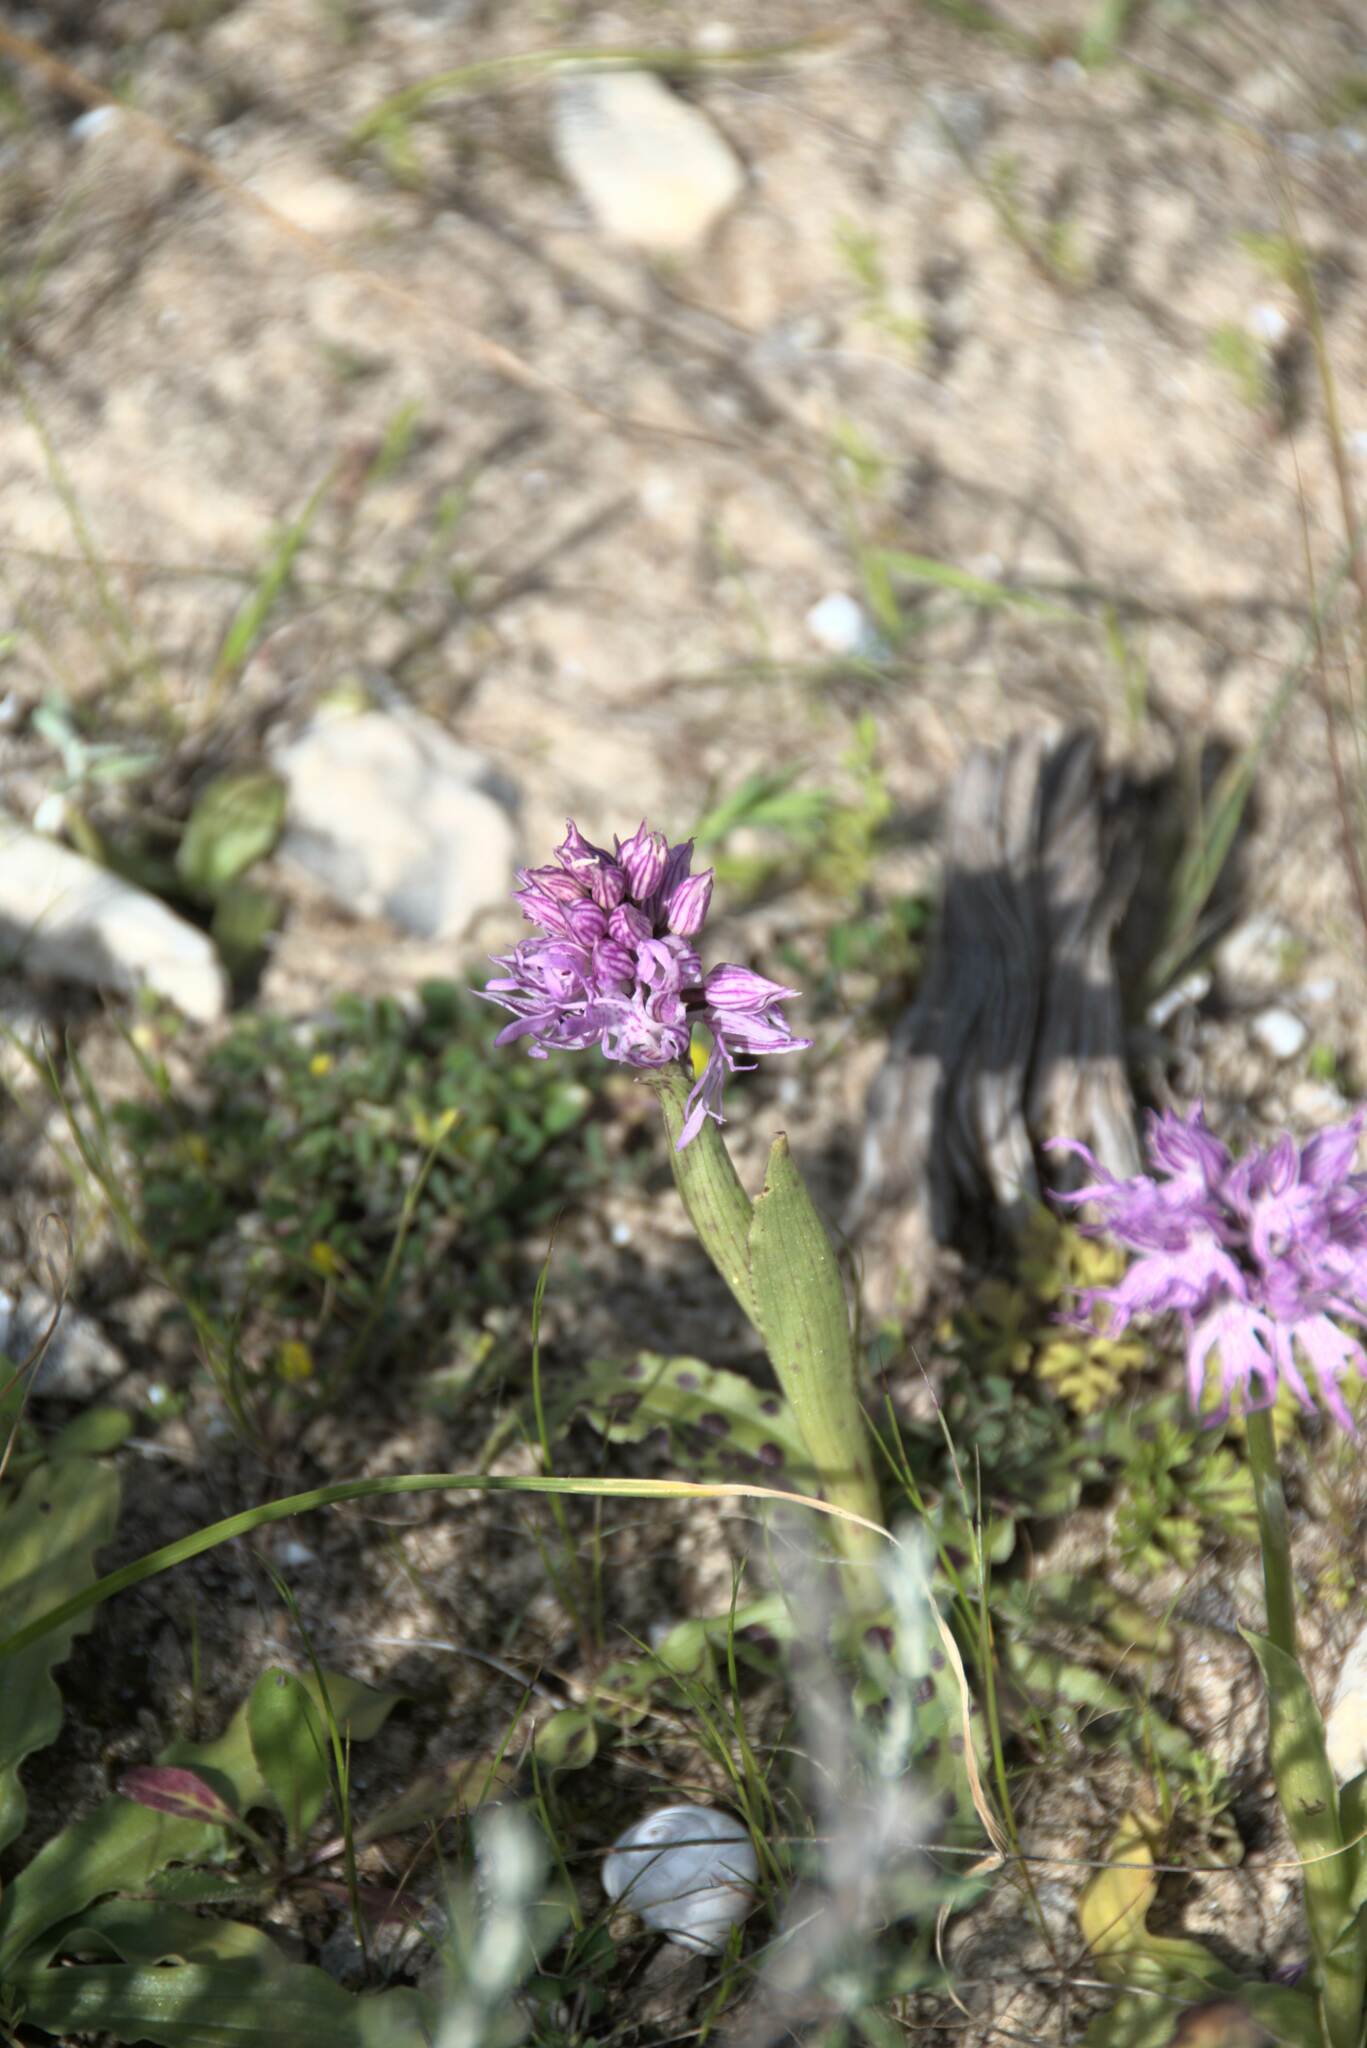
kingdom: Plantae
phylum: Tracheophyta
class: Liliopsida
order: Asparagales
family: Orchidaceae
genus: Orchis
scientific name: Orchis italica
